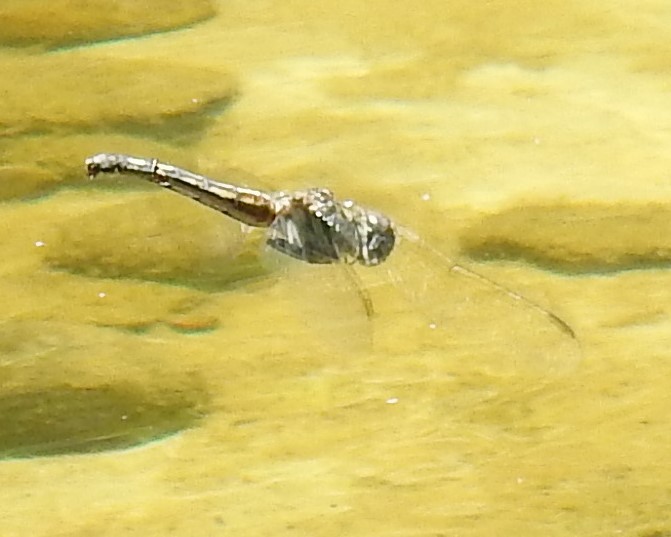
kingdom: Animalia
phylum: Arthropoda
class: Insecta
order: Odonata
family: Libellulidae
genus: Pachydiplax
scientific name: Pachydiplax longipennis
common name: Blue dasher
